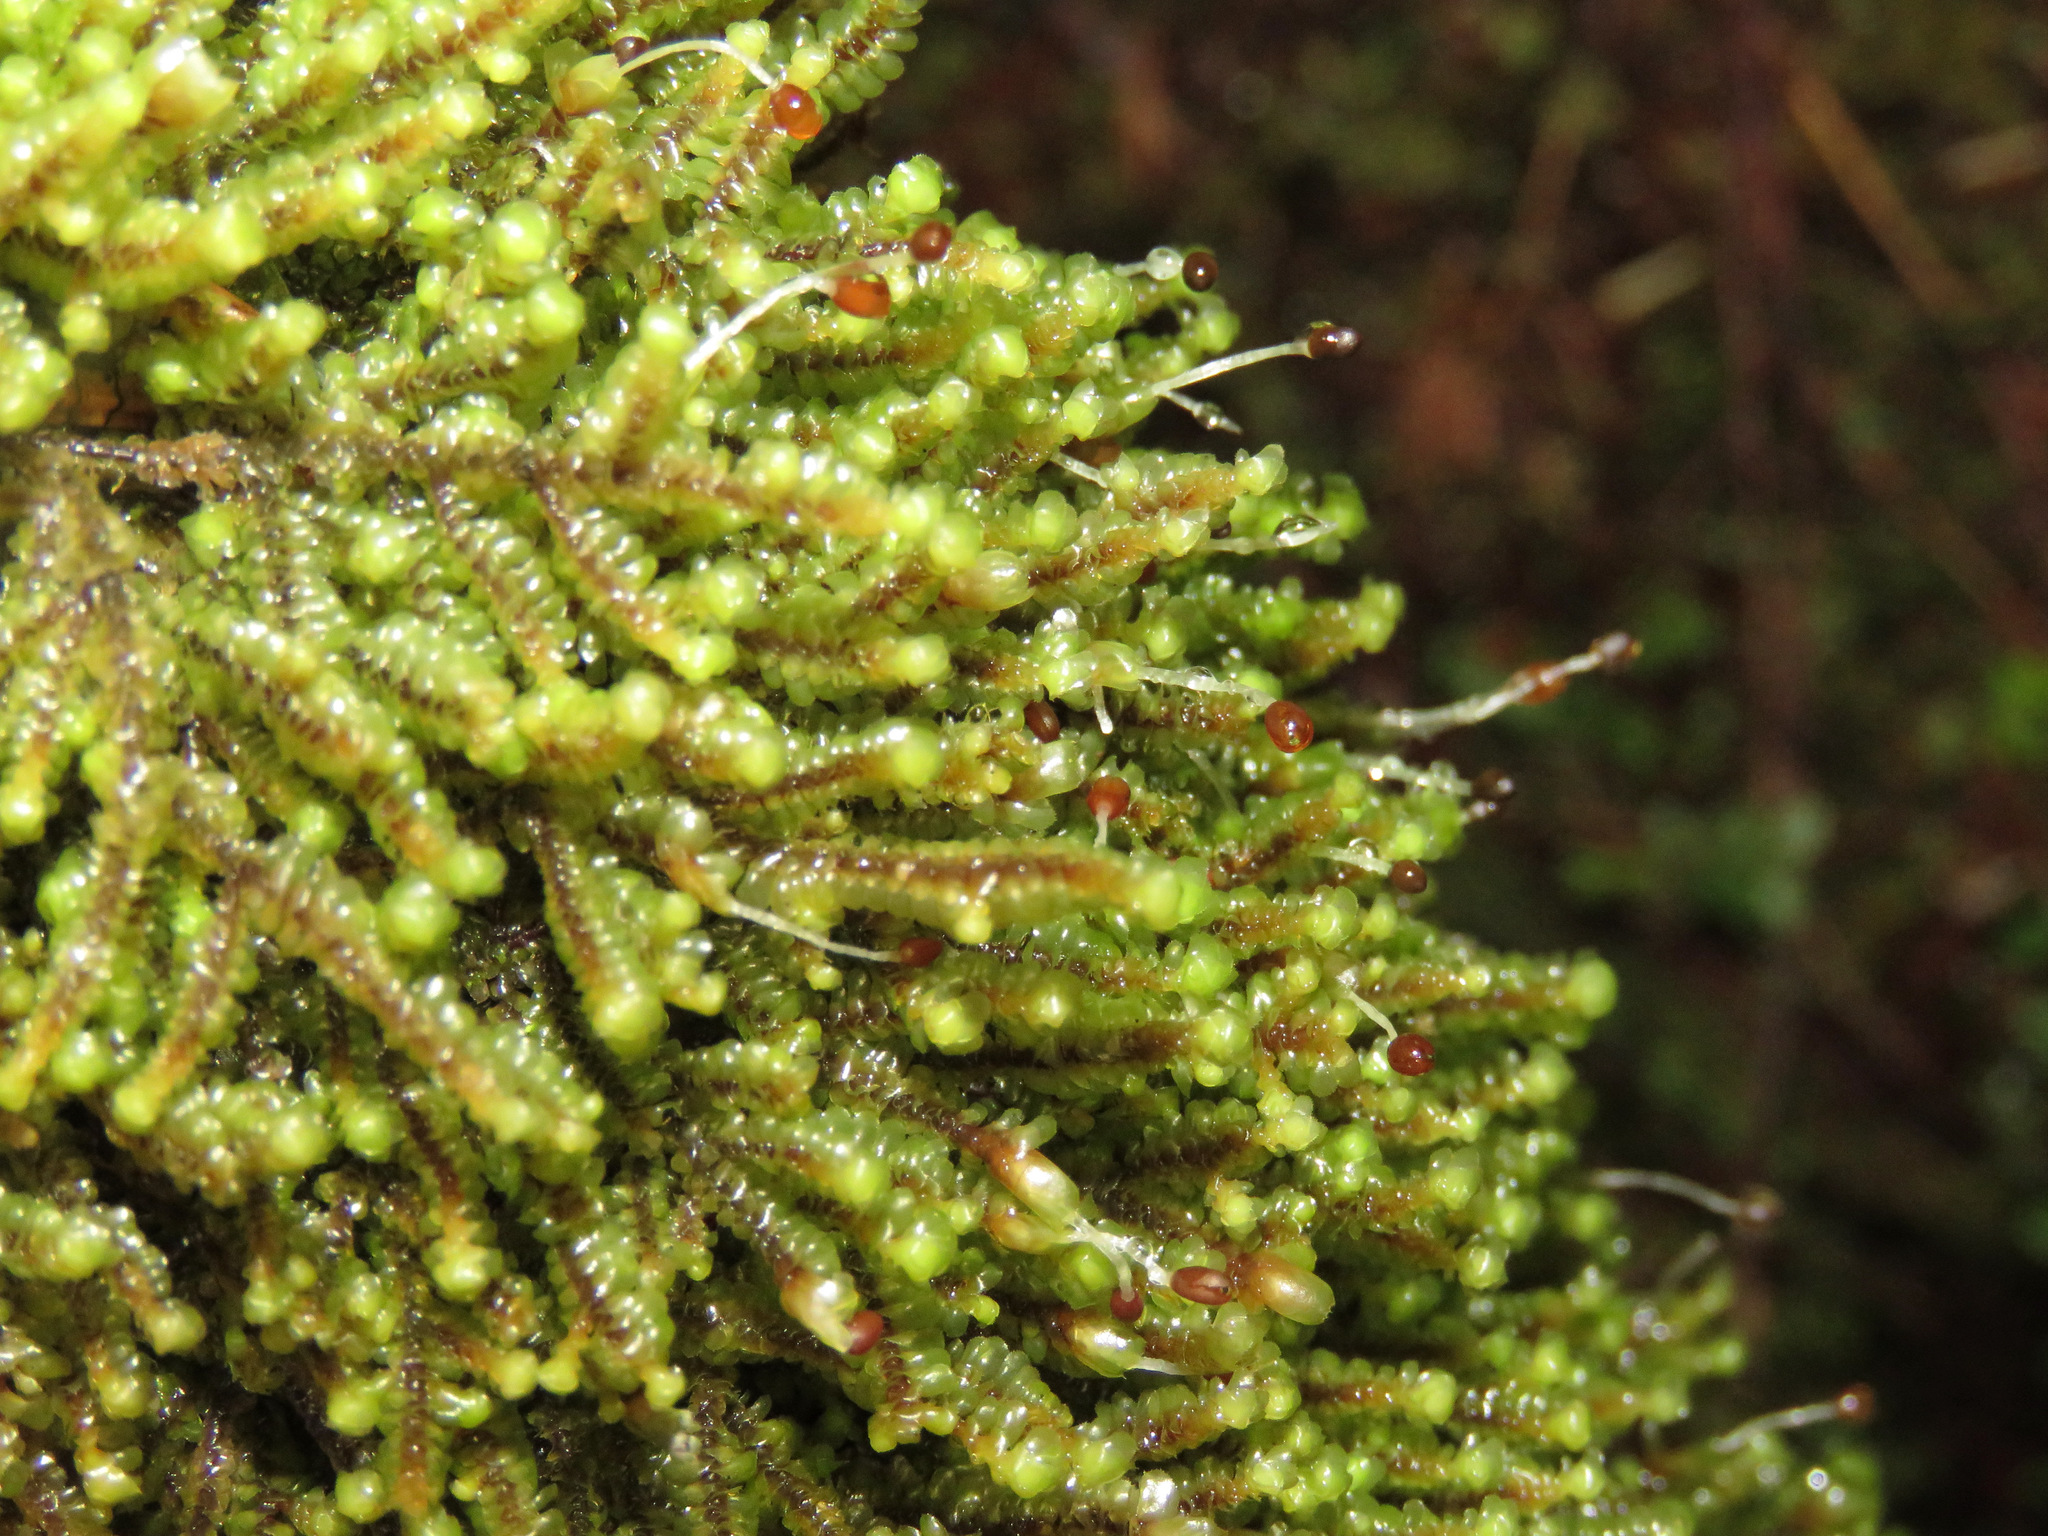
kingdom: Plantae
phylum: Marchantiophyta
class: Jungermanniopsida
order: Jungermanniales
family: Scapaniaceae
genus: Scapania
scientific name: Scapania bolanderi
